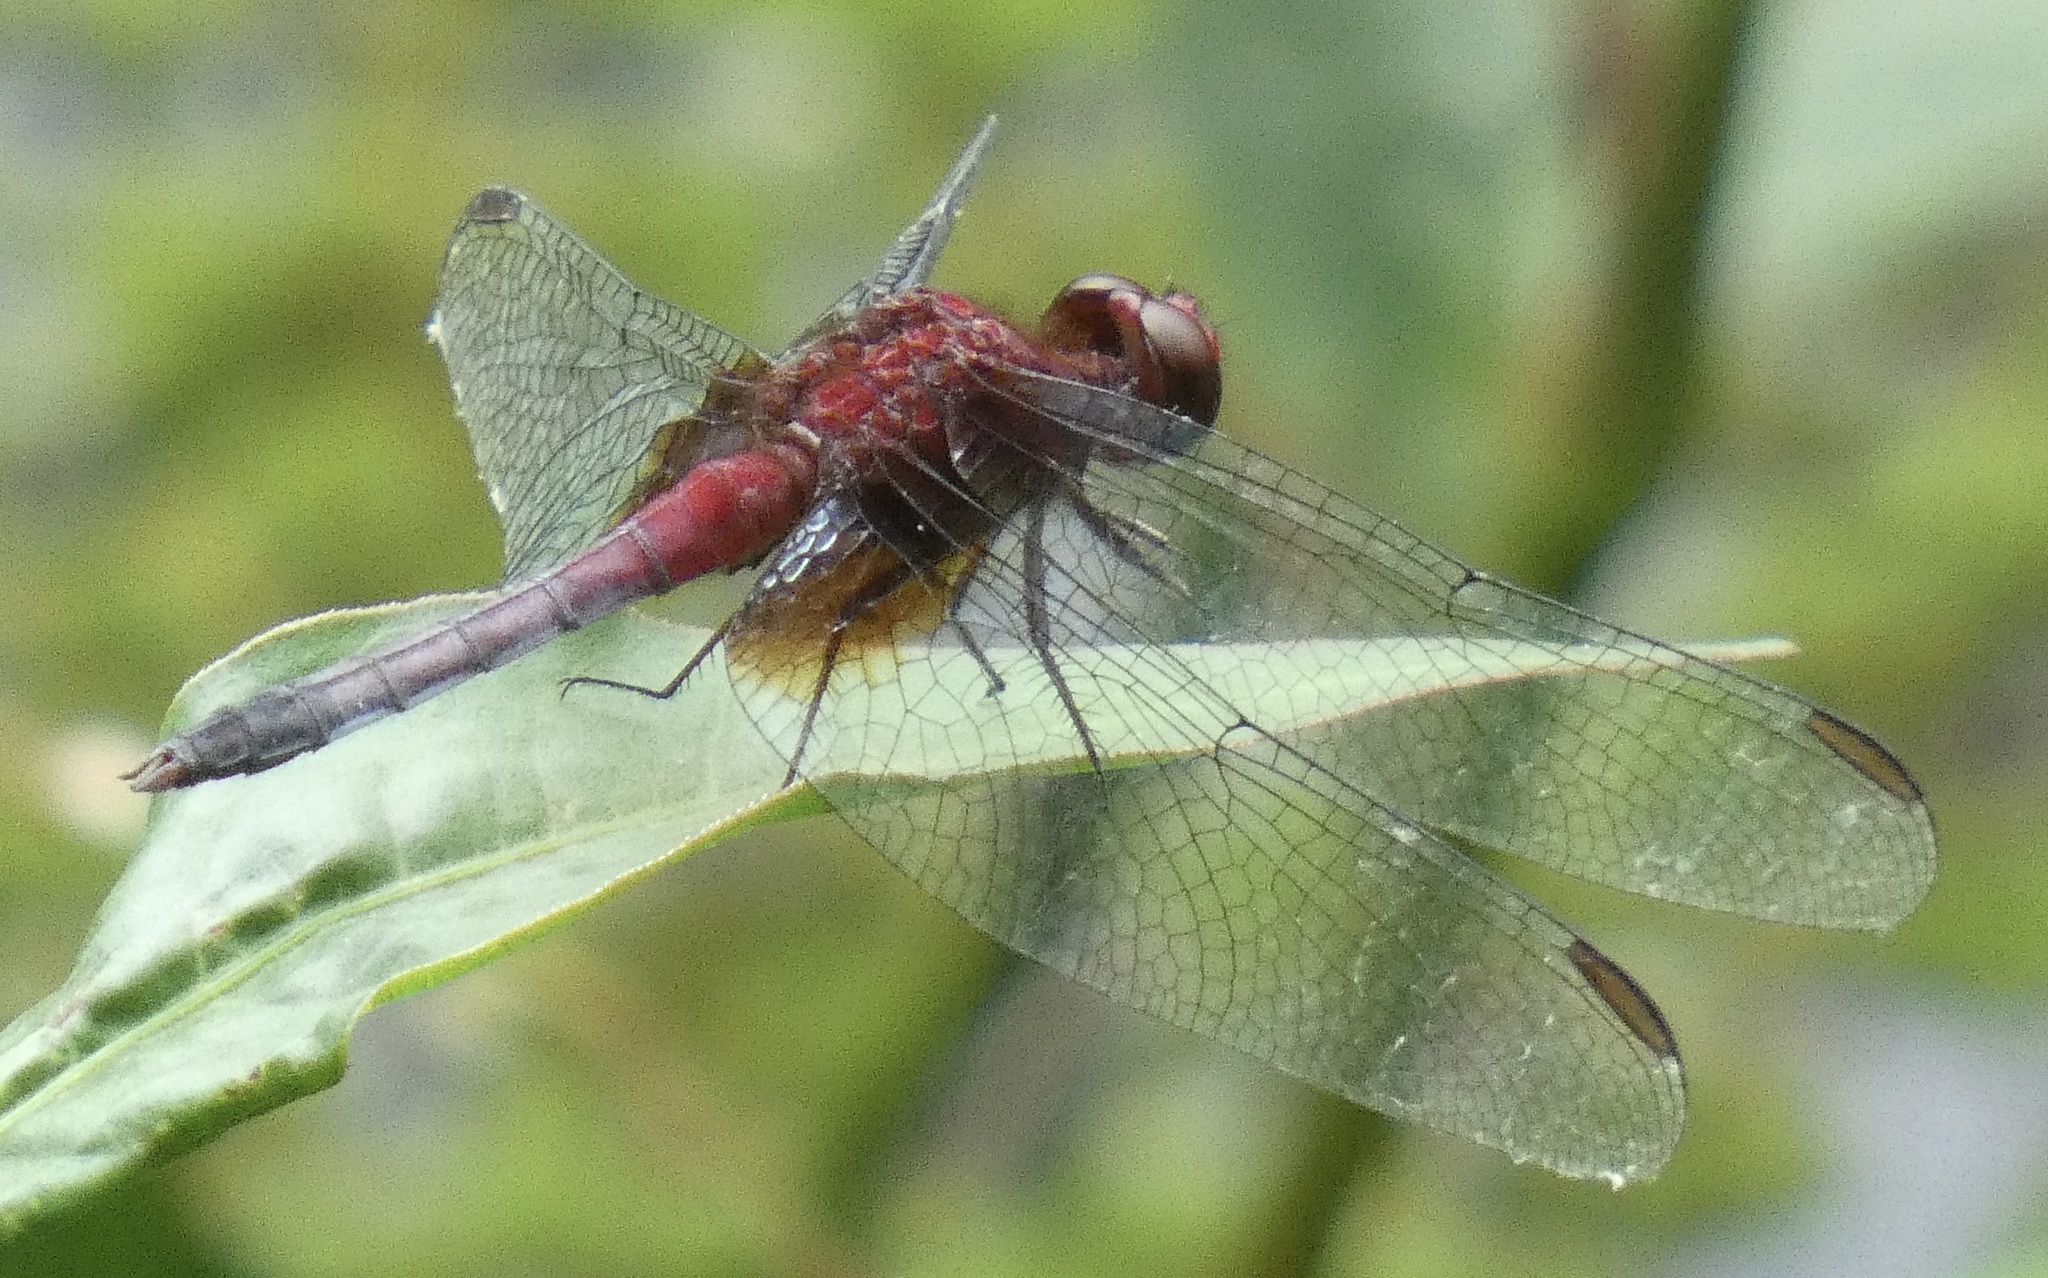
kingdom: Animalia
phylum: Arthropoda
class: Insecta
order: Odonata
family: Libellulidae
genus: Erythrodiplax
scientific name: Erythrodiplax fusca
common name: Red-faced dragonlet
